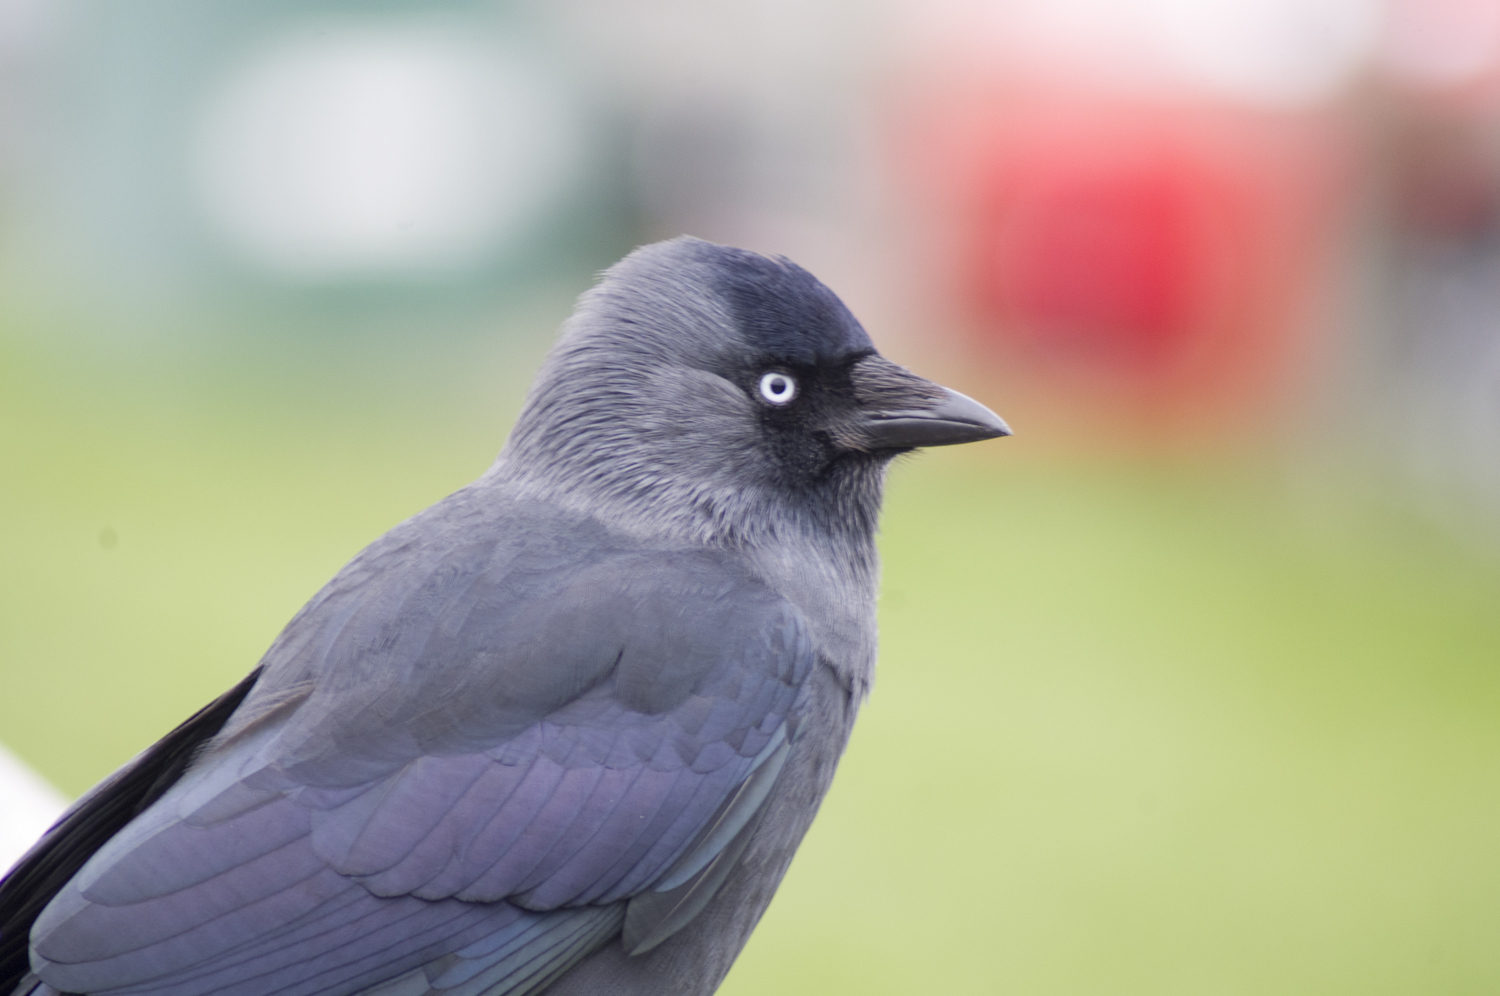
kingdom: Animalia
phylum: Chordata
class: Aves
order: Passeriformes
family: Corvidae
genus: Coloeus
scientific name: Coloeus monedula
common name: Western jackdaw
